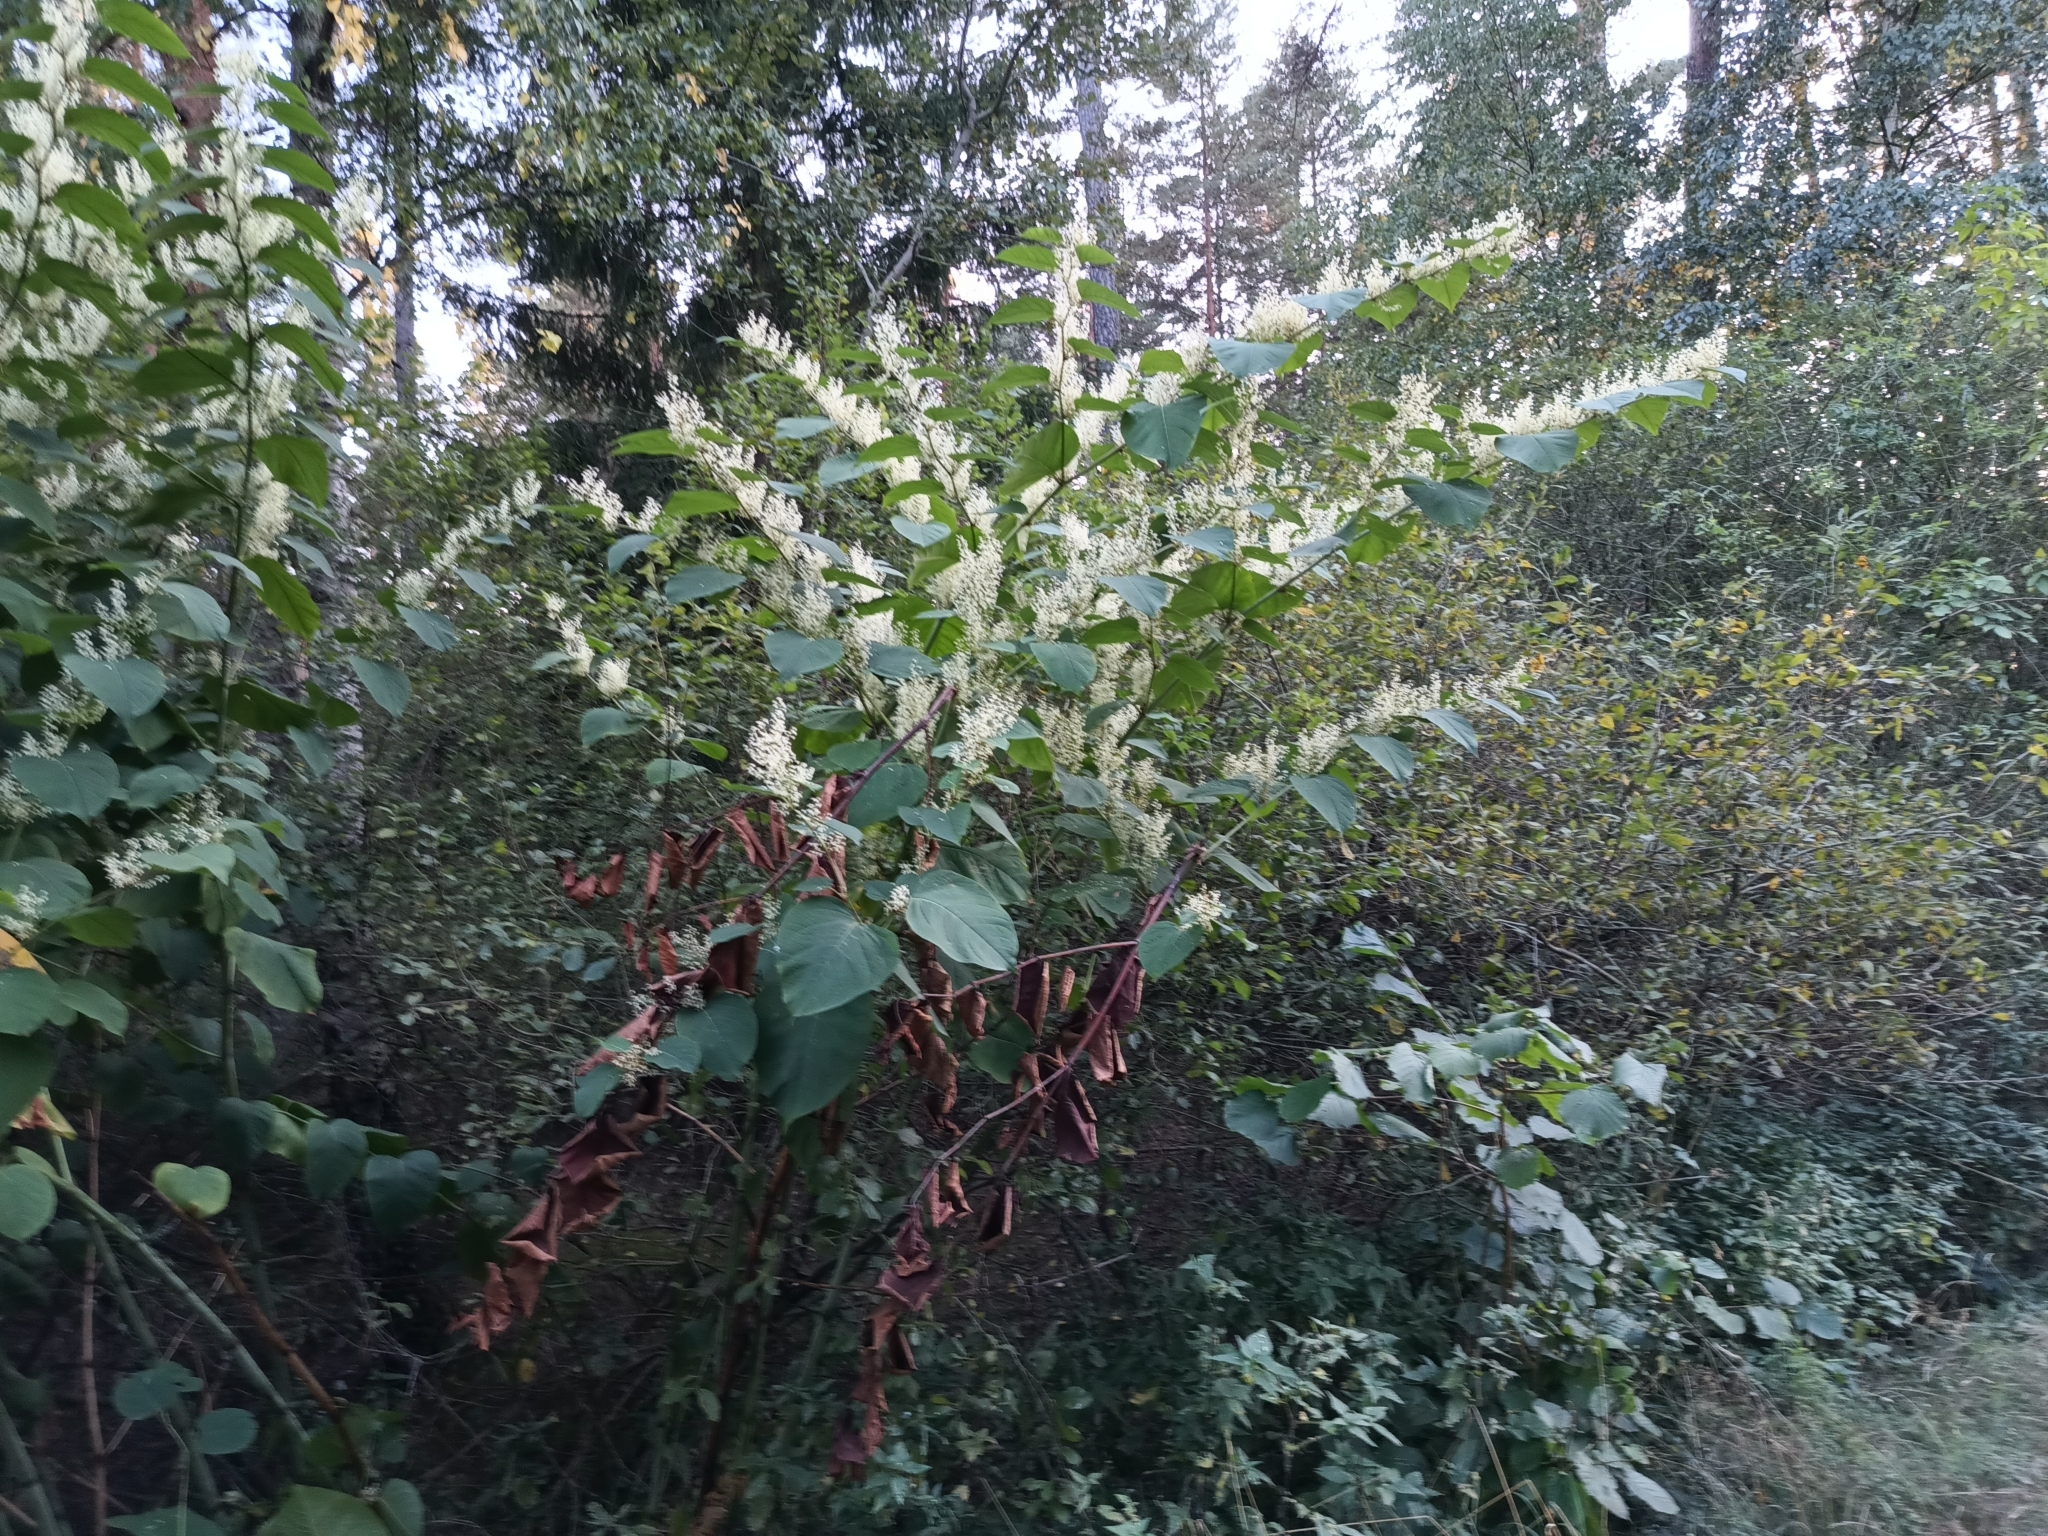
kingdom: Plantae
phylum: Tracheophyta
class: Magnoliopsida
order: Caryophyllales
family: Polygonaceae
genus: Reynoutria
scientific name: Reynoutria bohemica
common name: Bohemian knotweed
